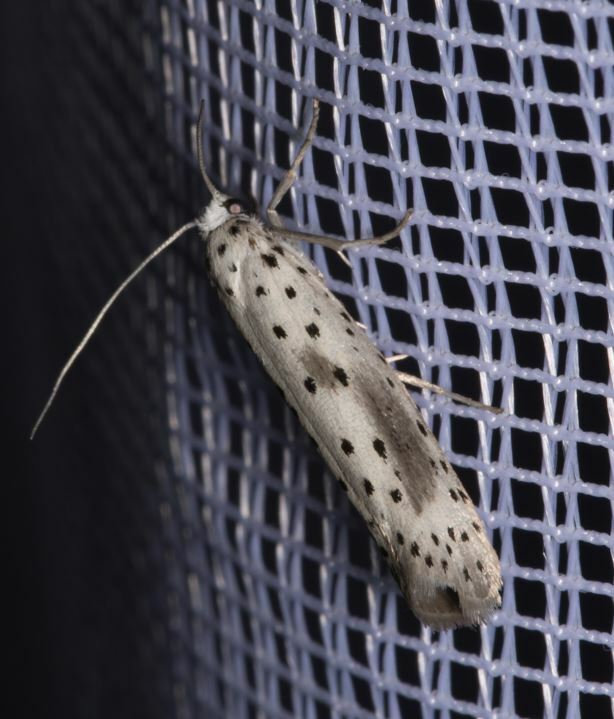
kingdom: Animalia
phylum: Arthropoda
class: Insecta
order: Lepidoptera
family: Yponomeutidae
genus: Yponomeuta
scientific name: Yponomeuta irrorella
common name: Scarce ermine
